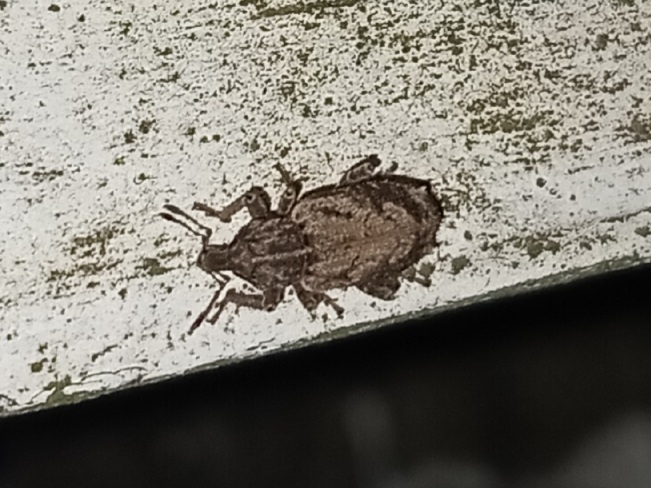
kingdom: Animalia
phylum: Arthropoda
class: Insecta
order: Coleoptera
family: Curculionidae
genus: Listroderes
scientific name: Listroderes costirostris
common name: Weevil
